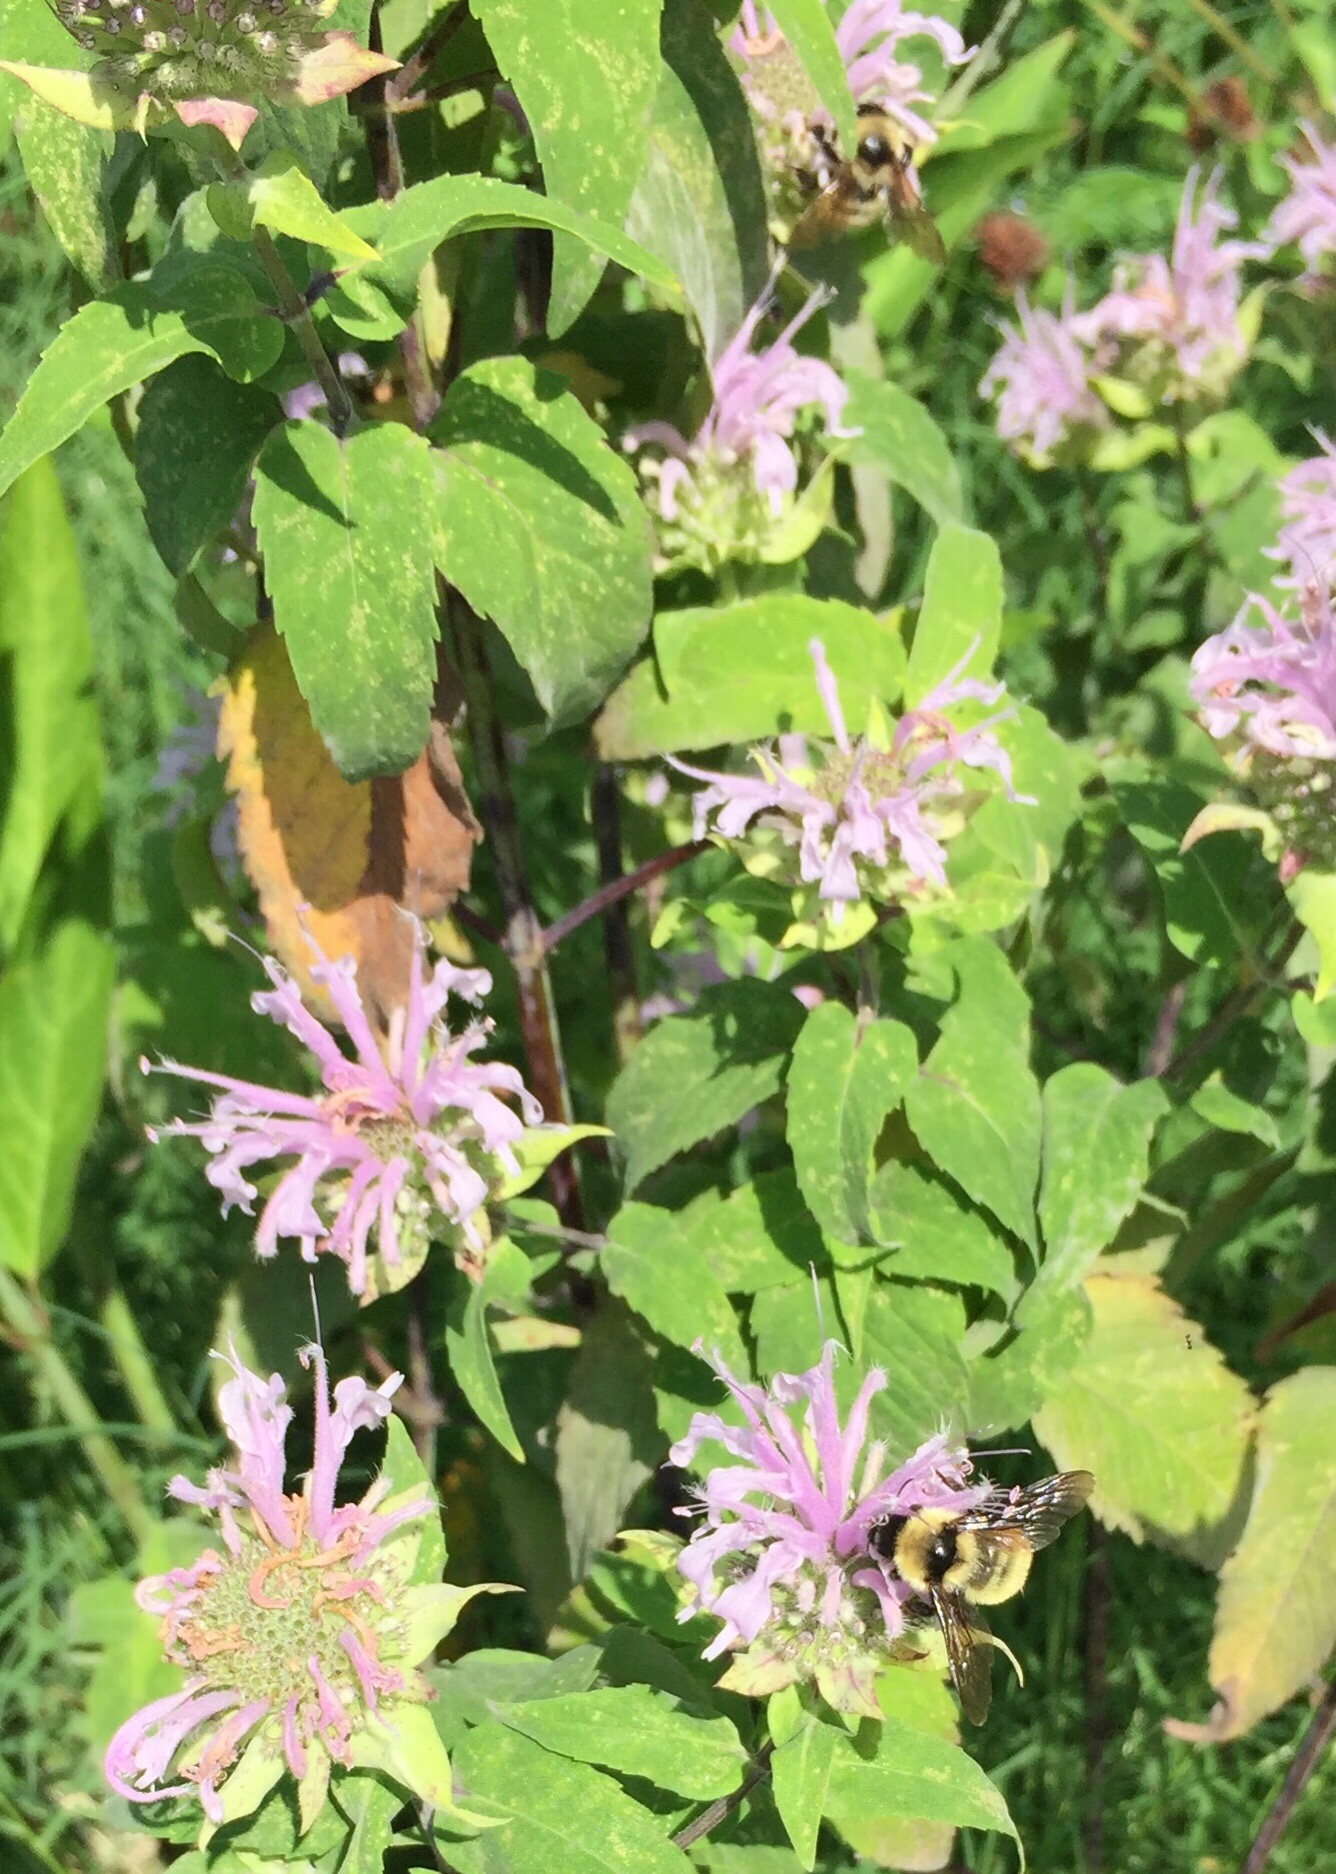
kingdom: Animalia
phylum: Arthropoda
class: Insecta
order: Hymenoptera
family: Apidae
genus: Bombus
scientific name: Bombus fervidus
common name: Yellow bumble bee
